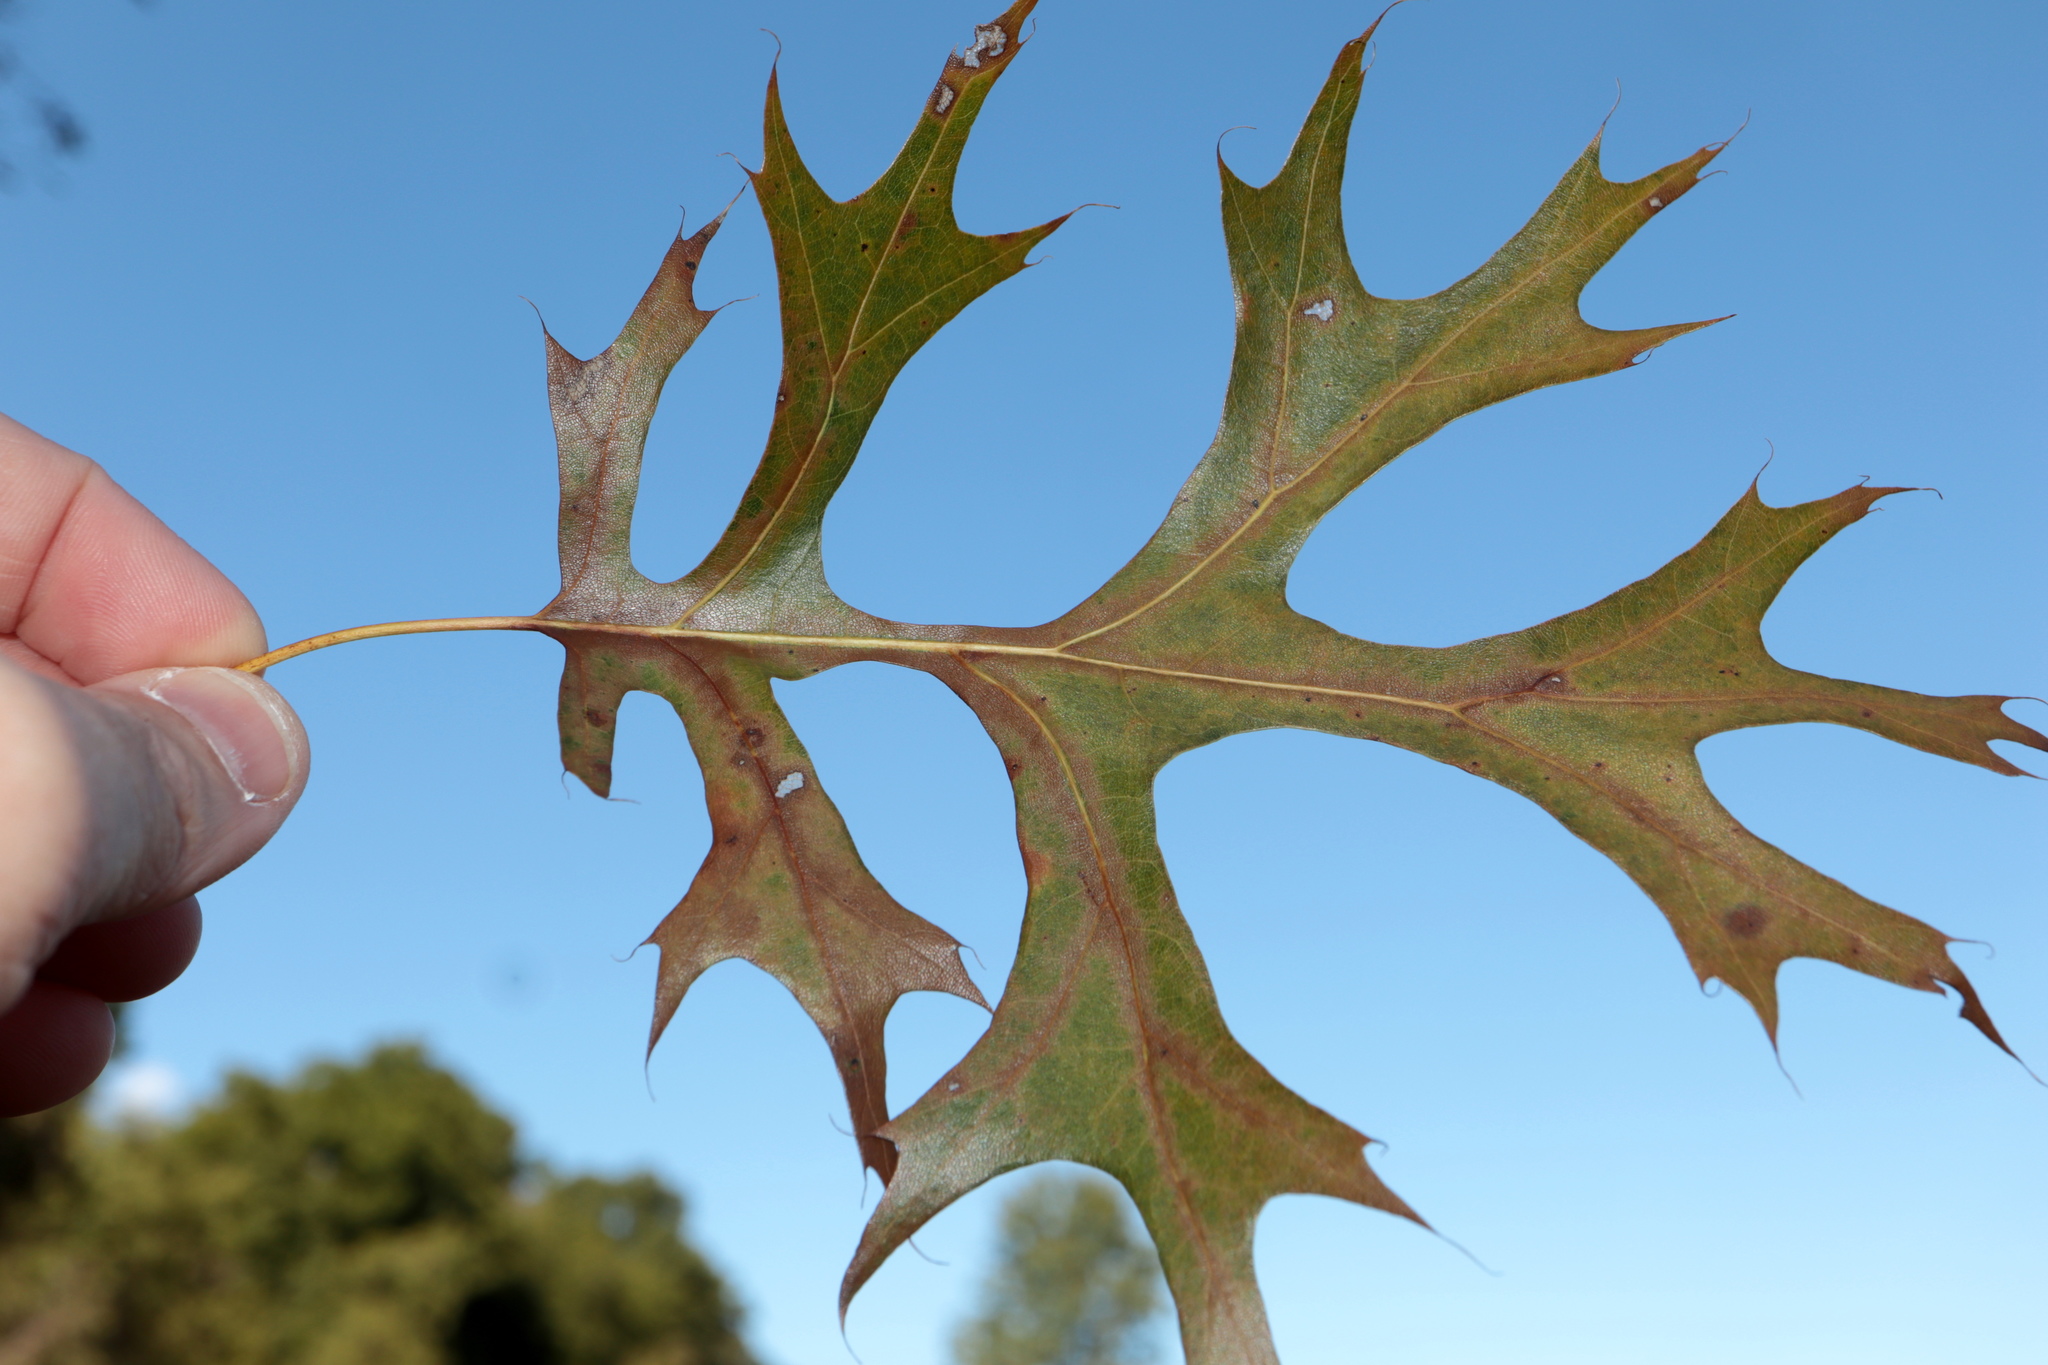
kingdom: Plantae
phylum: Tracheophyta
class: Magnoliopsida
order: Fagales
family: Fagaceae
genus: Quercus
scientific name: Quercus shumardii
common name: Shumard oak
